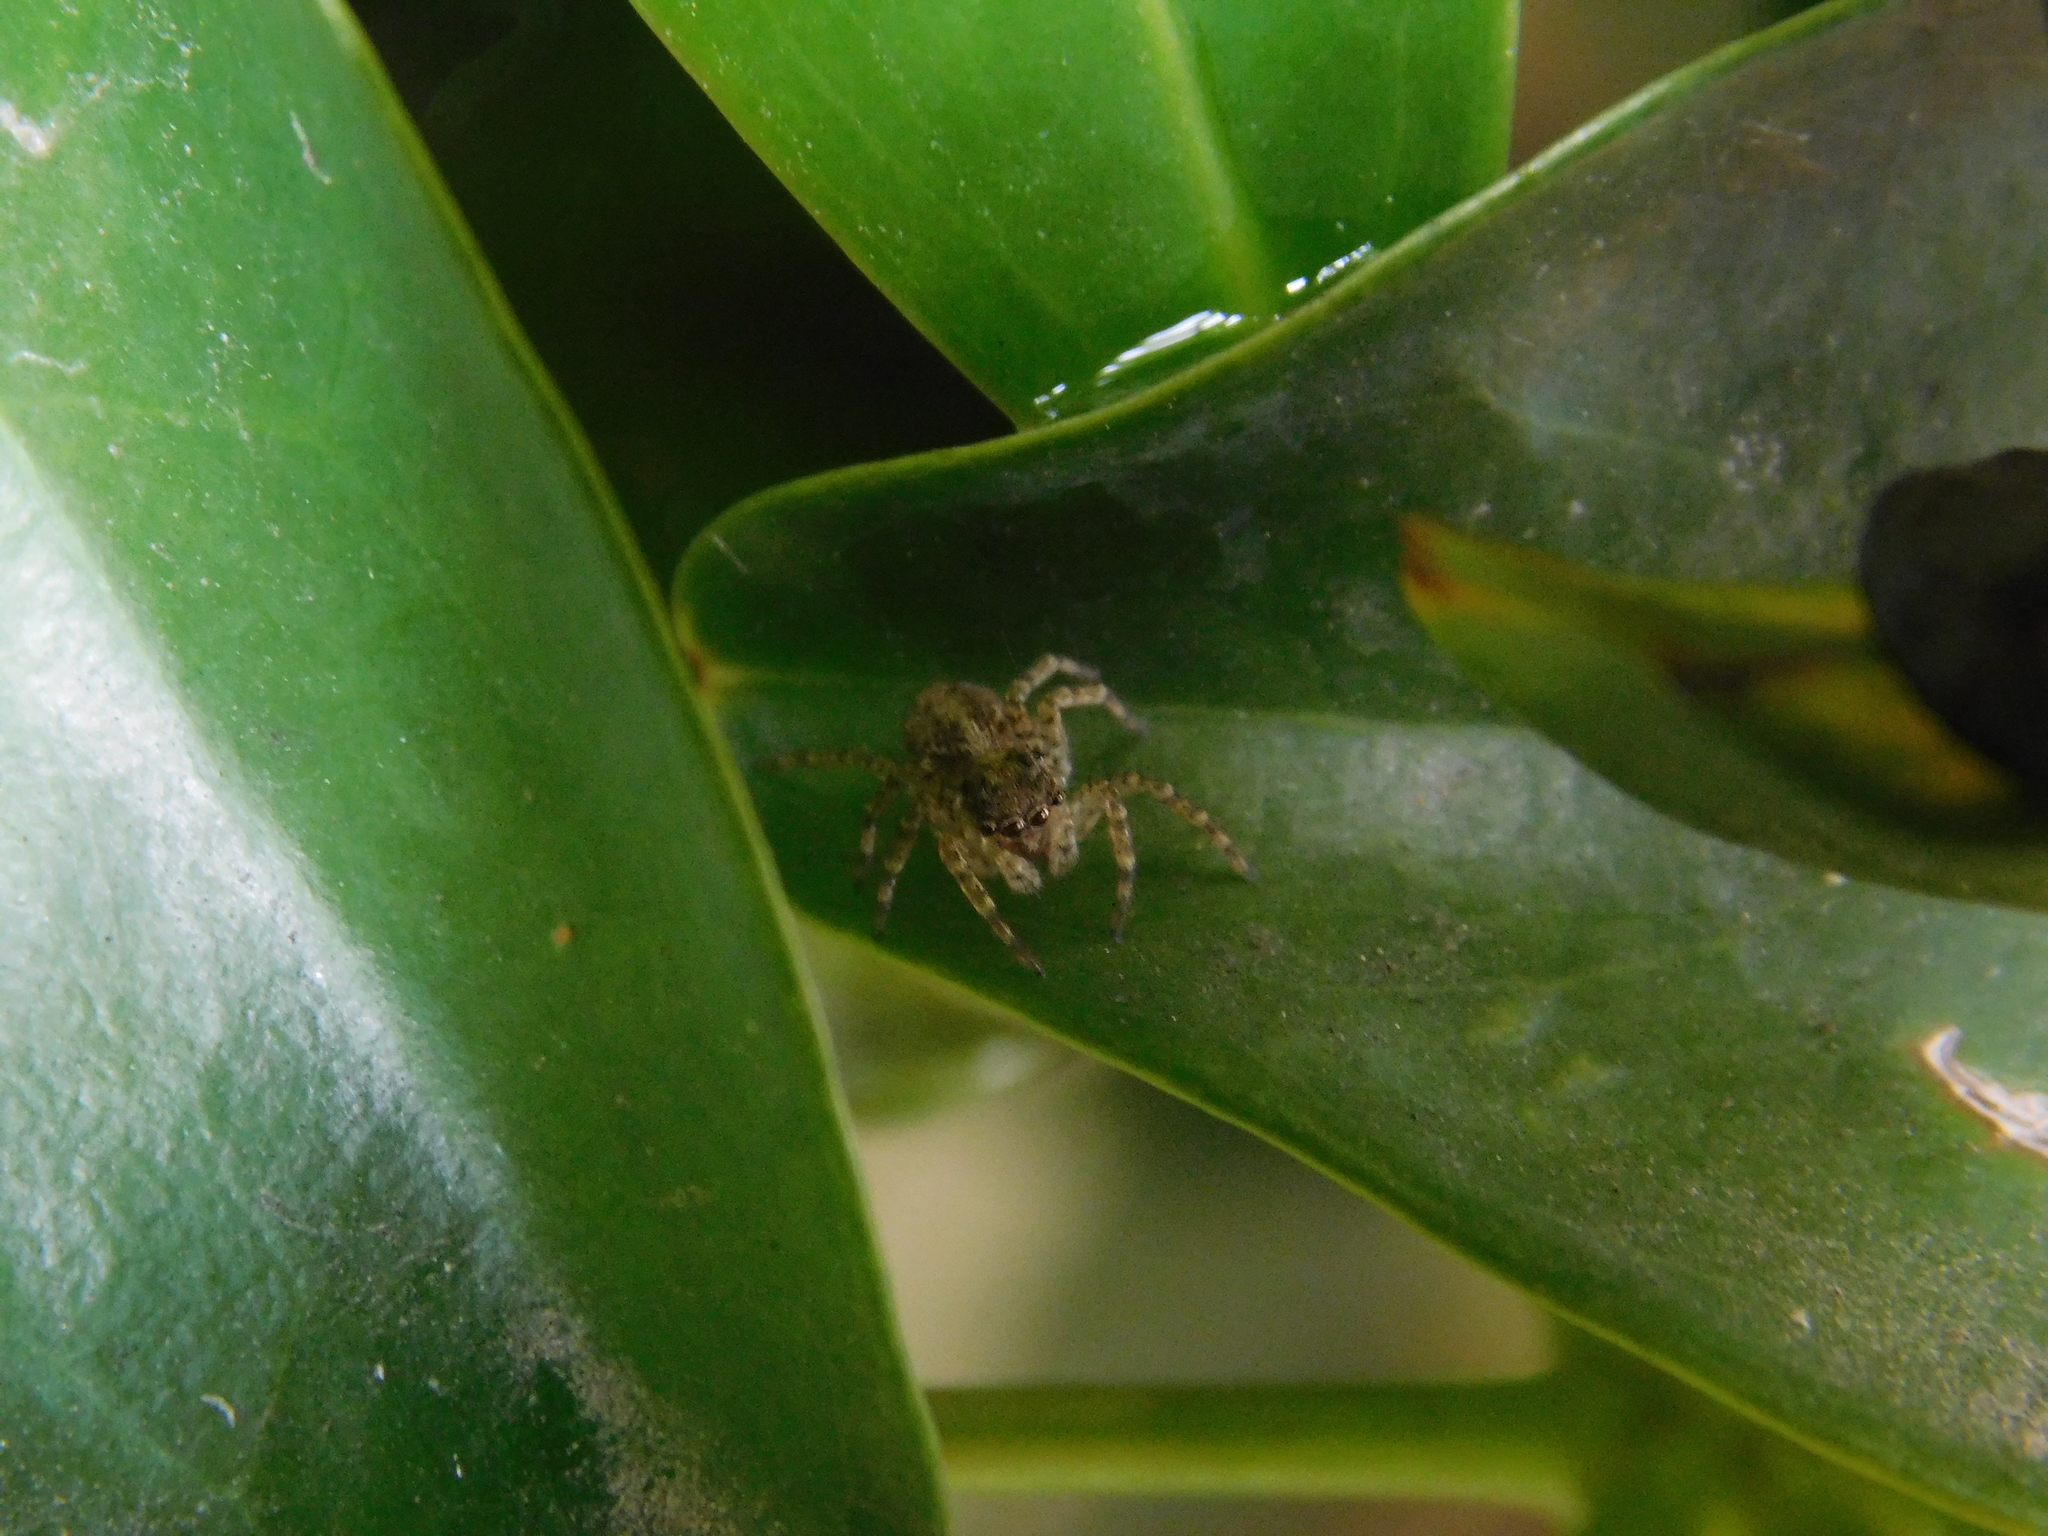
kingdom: Animalia
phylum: Arthropoda
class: Arachnida
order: Araneae
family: Salticidae
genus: Saitis
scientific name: Saitis variegatus
